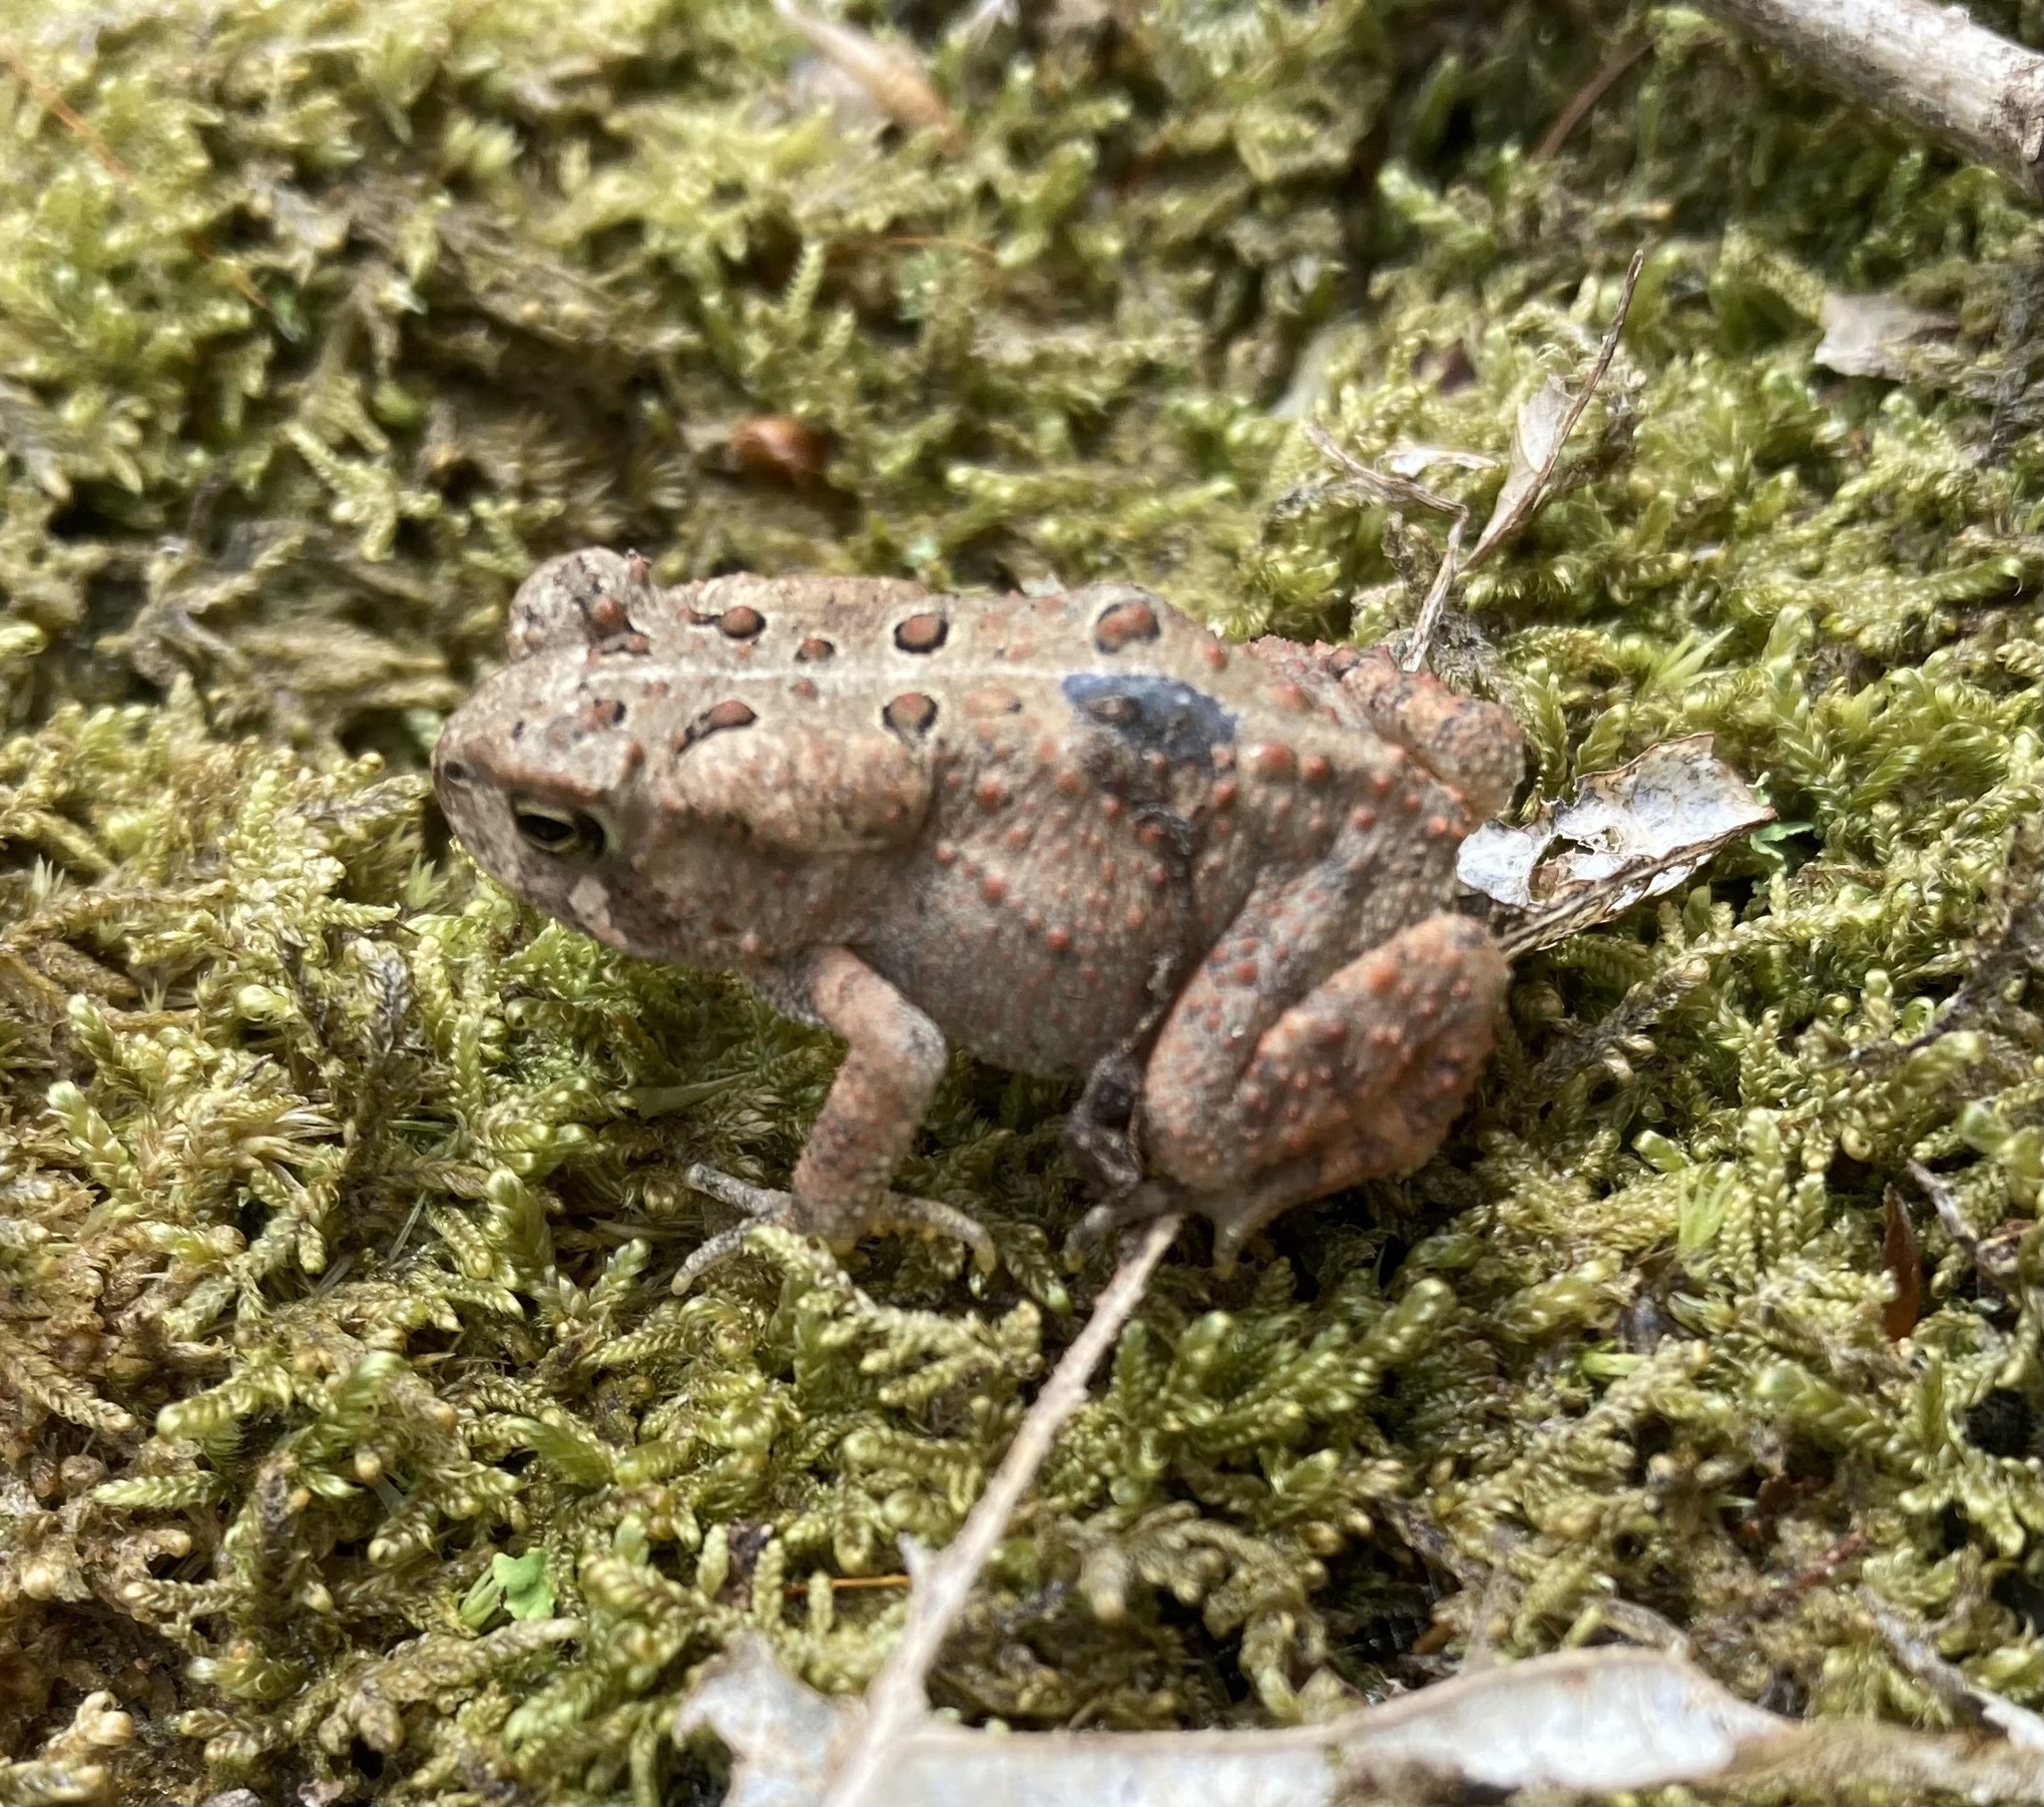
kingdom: Animalia
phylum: Chordata
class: Amphibia
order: Anura
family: Bufonidae
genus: Anaxyrus
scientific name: Anaxyrus americanus
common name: American toad
